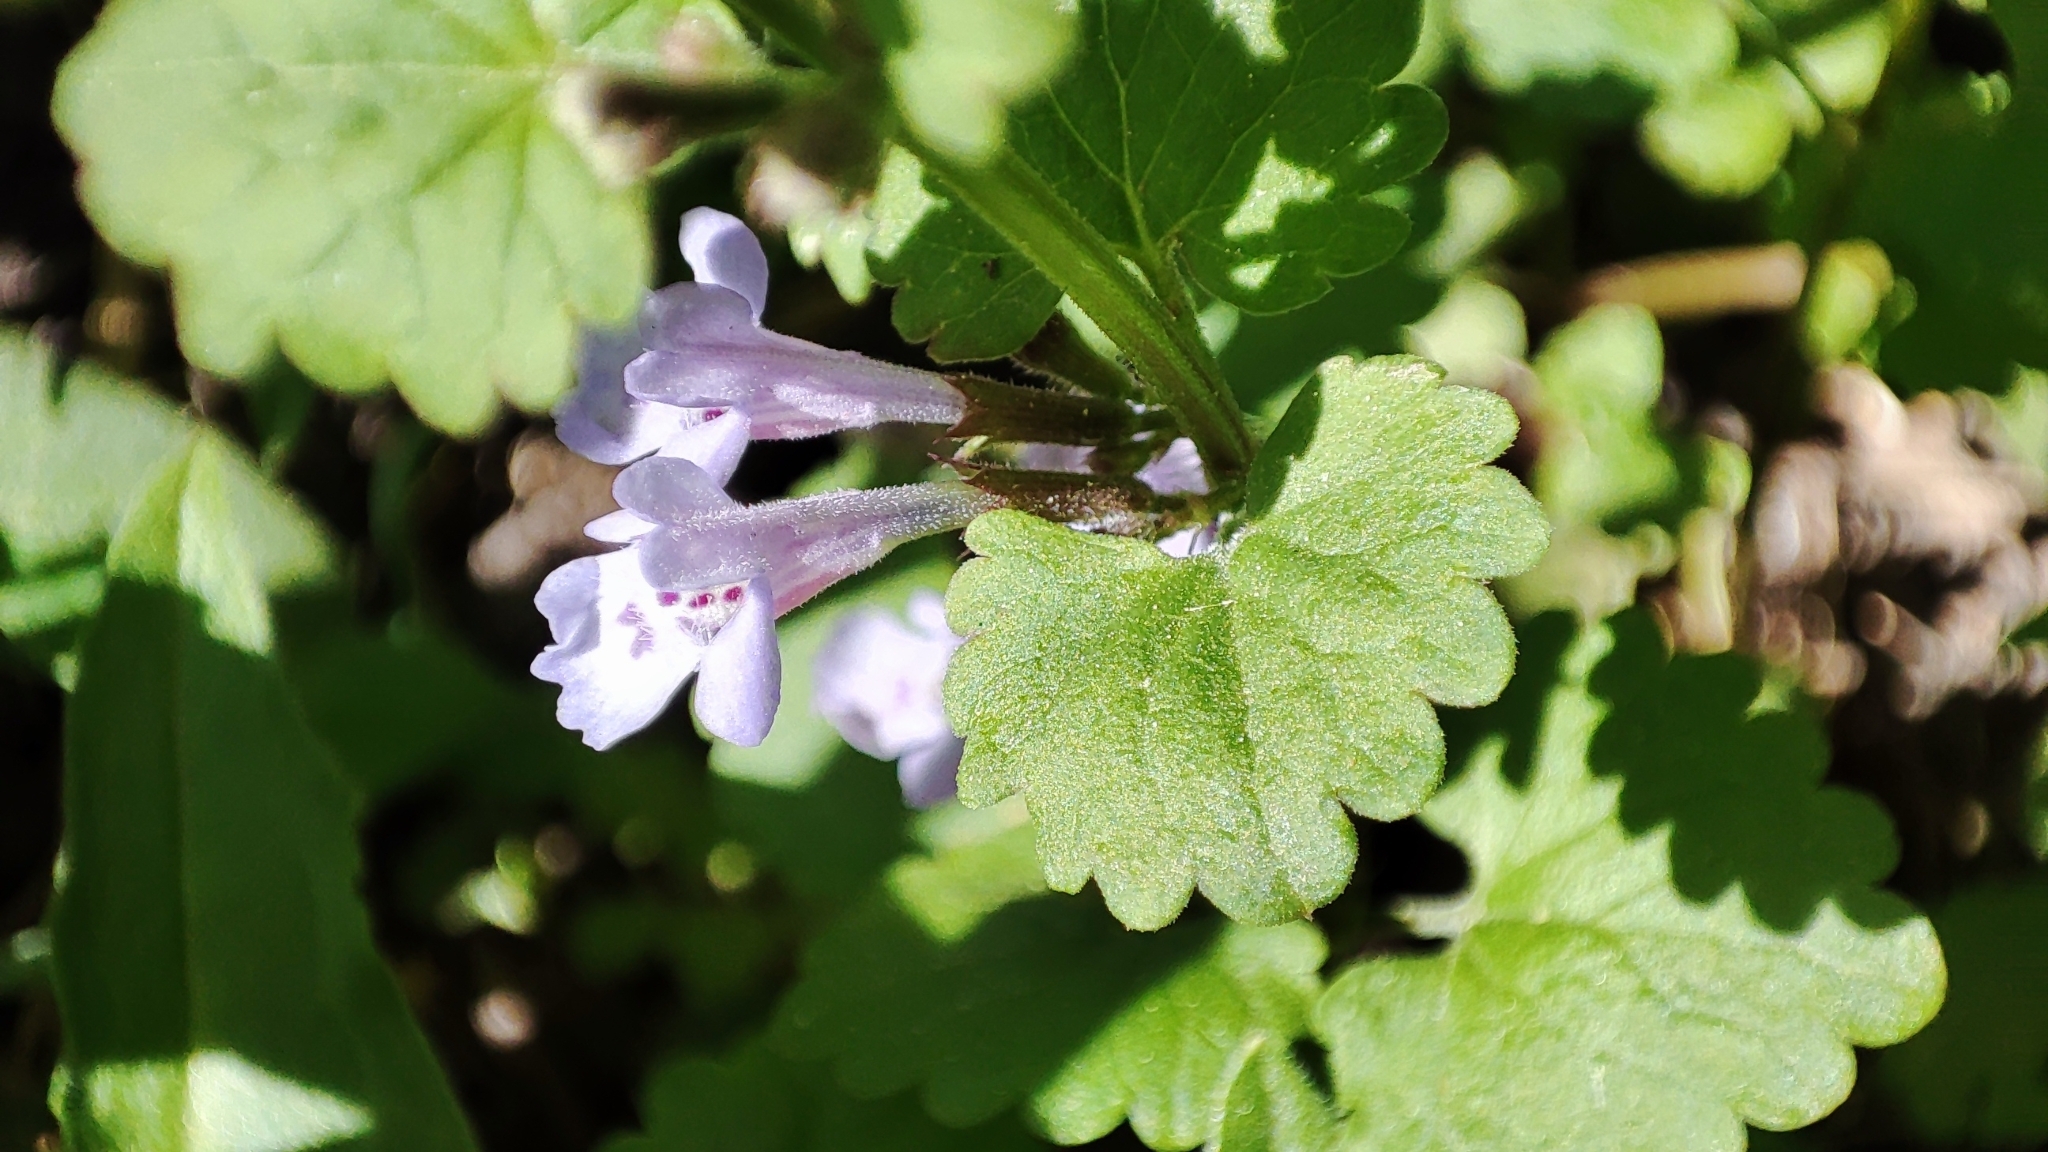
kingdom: Plantae
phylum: Tracheophyta
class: Magnoliopsida
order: Lamiales
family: Lamiaceae
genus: Glechoma
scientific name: Glechoma hederacea
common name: Ground ivy
